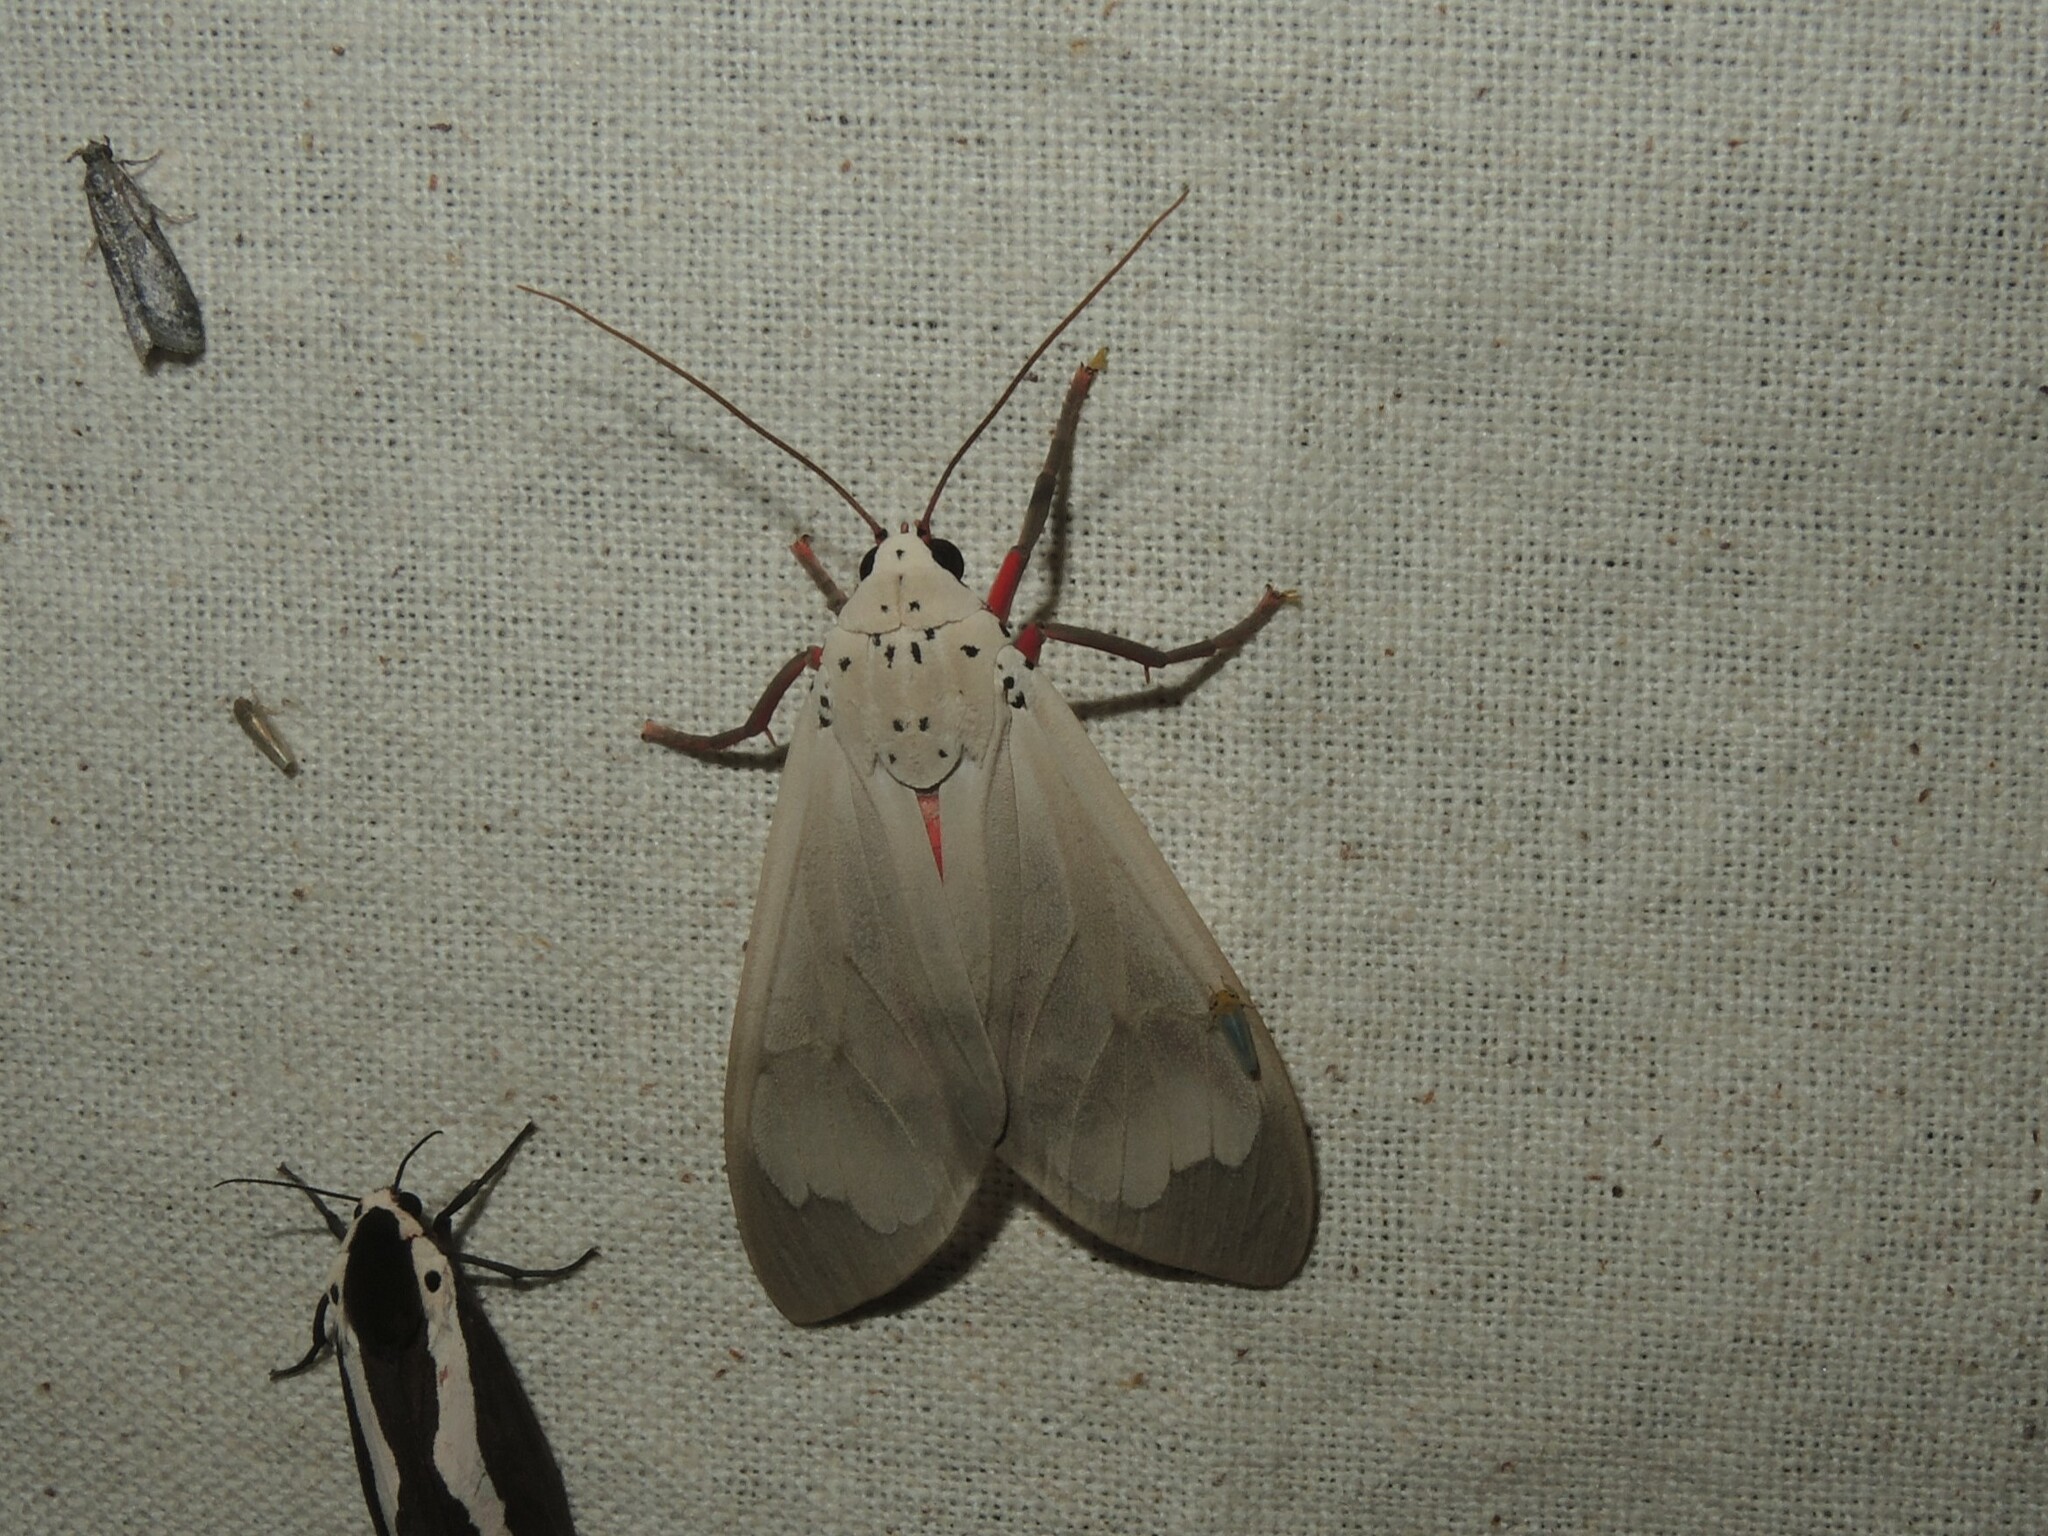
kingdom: Animalia
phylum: Arthropoda
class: Insecta
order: Lepidoptera
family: Erebidae
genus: Amerila
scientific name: Amerila astreus
